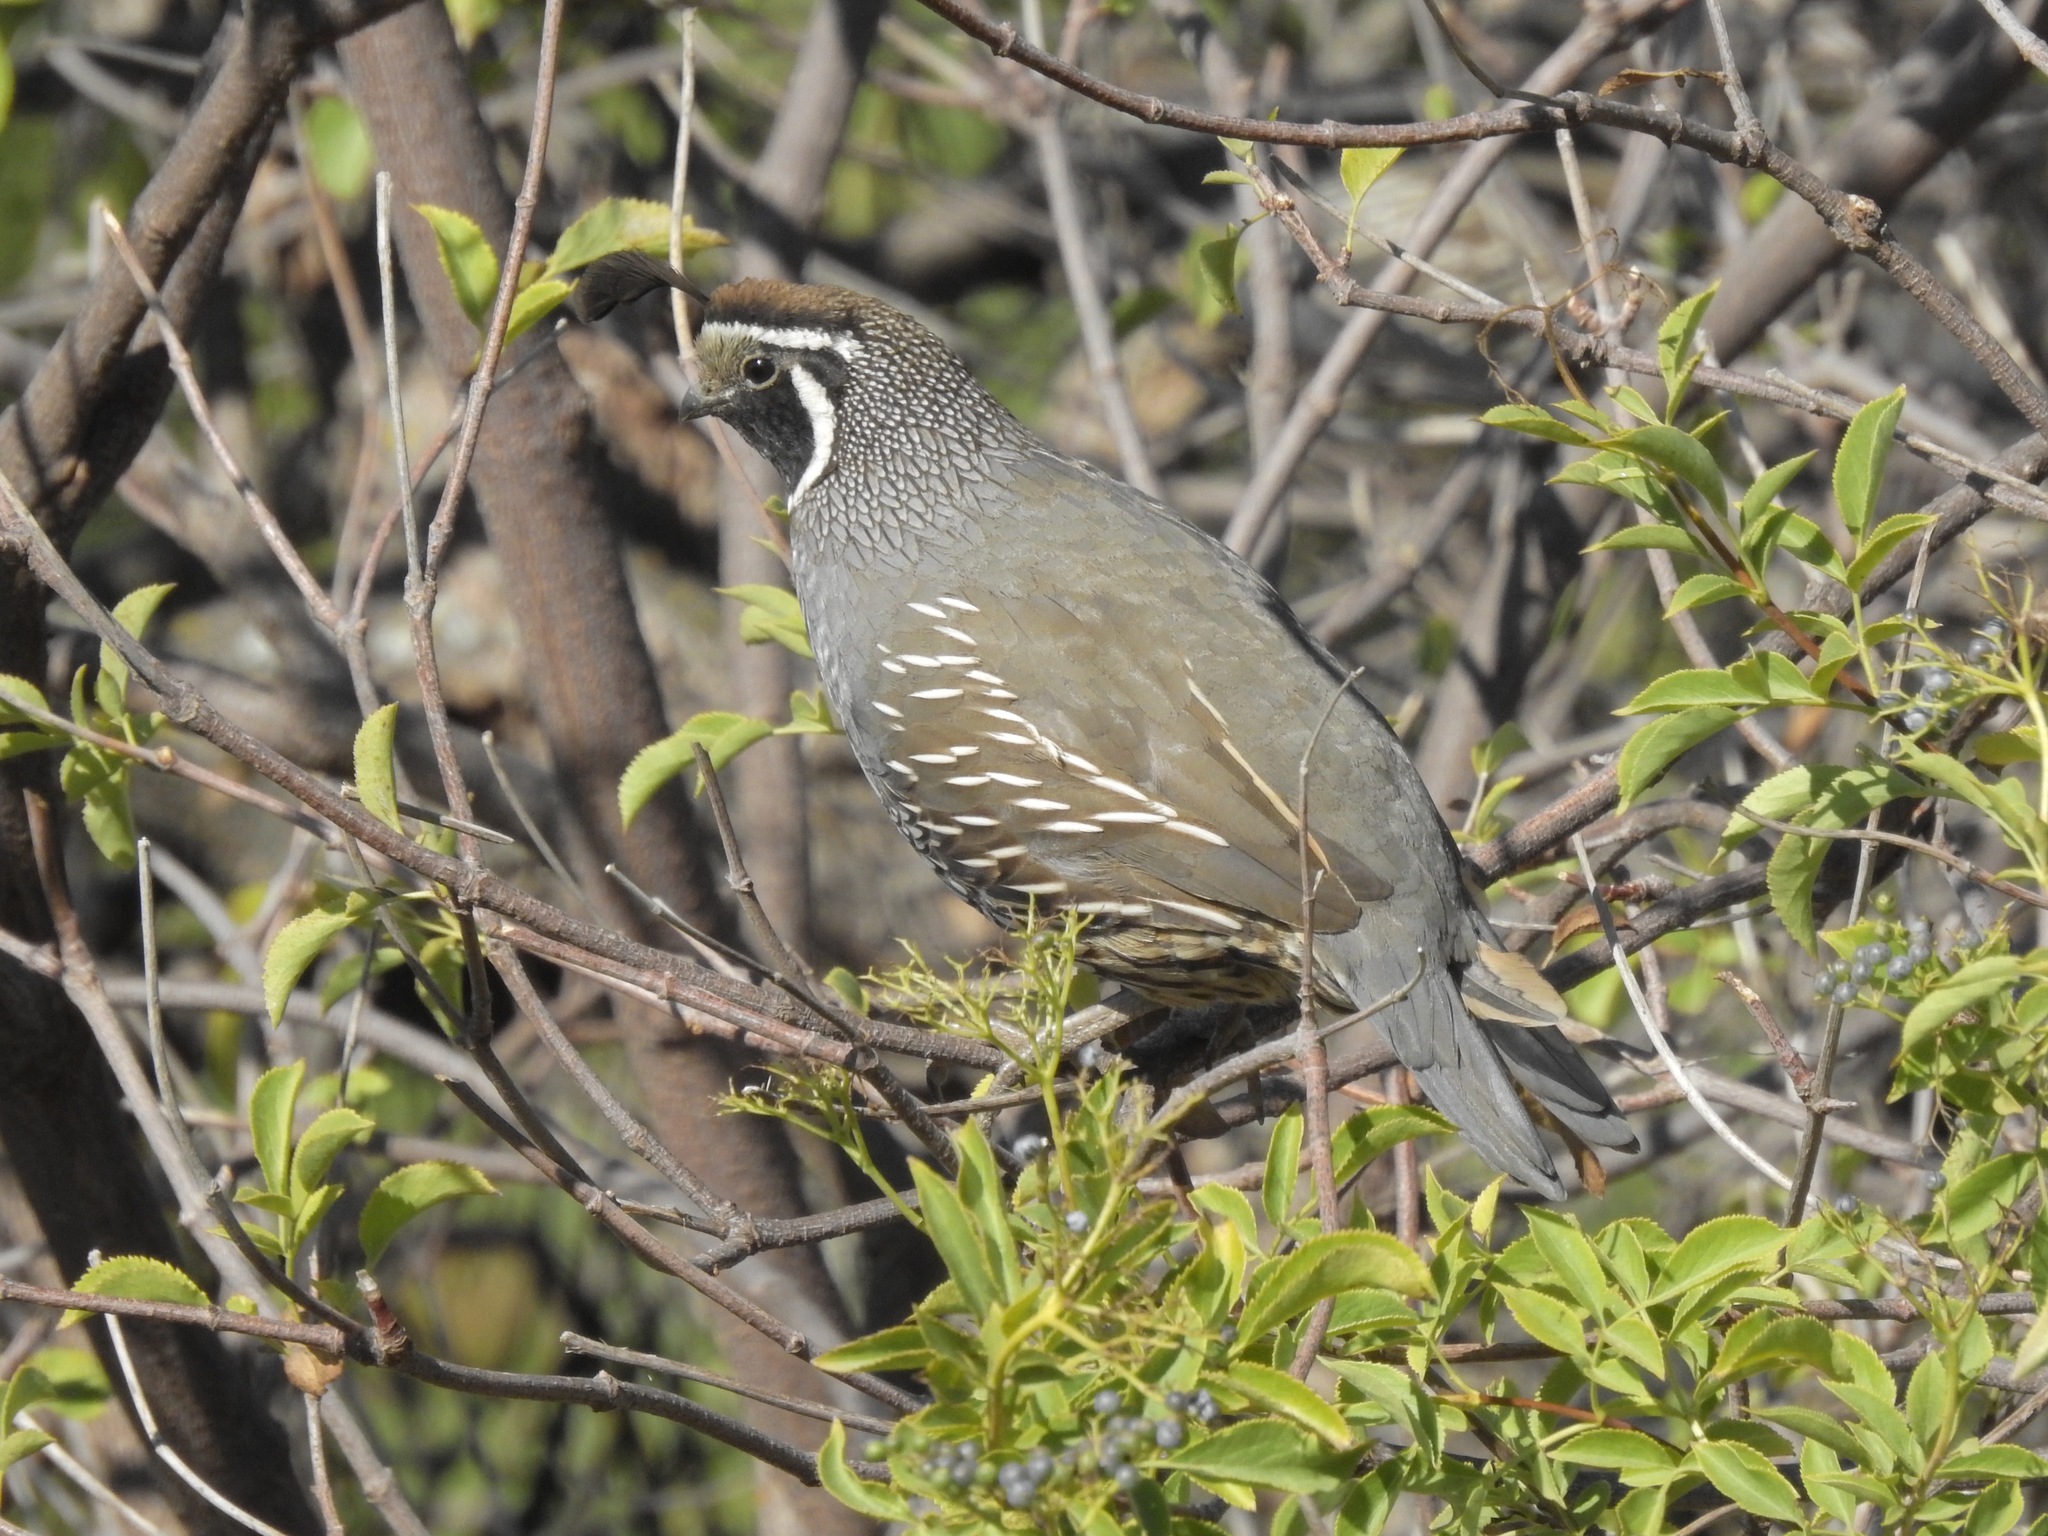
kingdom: Animalia
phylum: Chordata
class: Aves
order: Galliformes
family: Odontophoridae
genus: Callipepla
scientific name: Callipepla californica
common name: California quail
